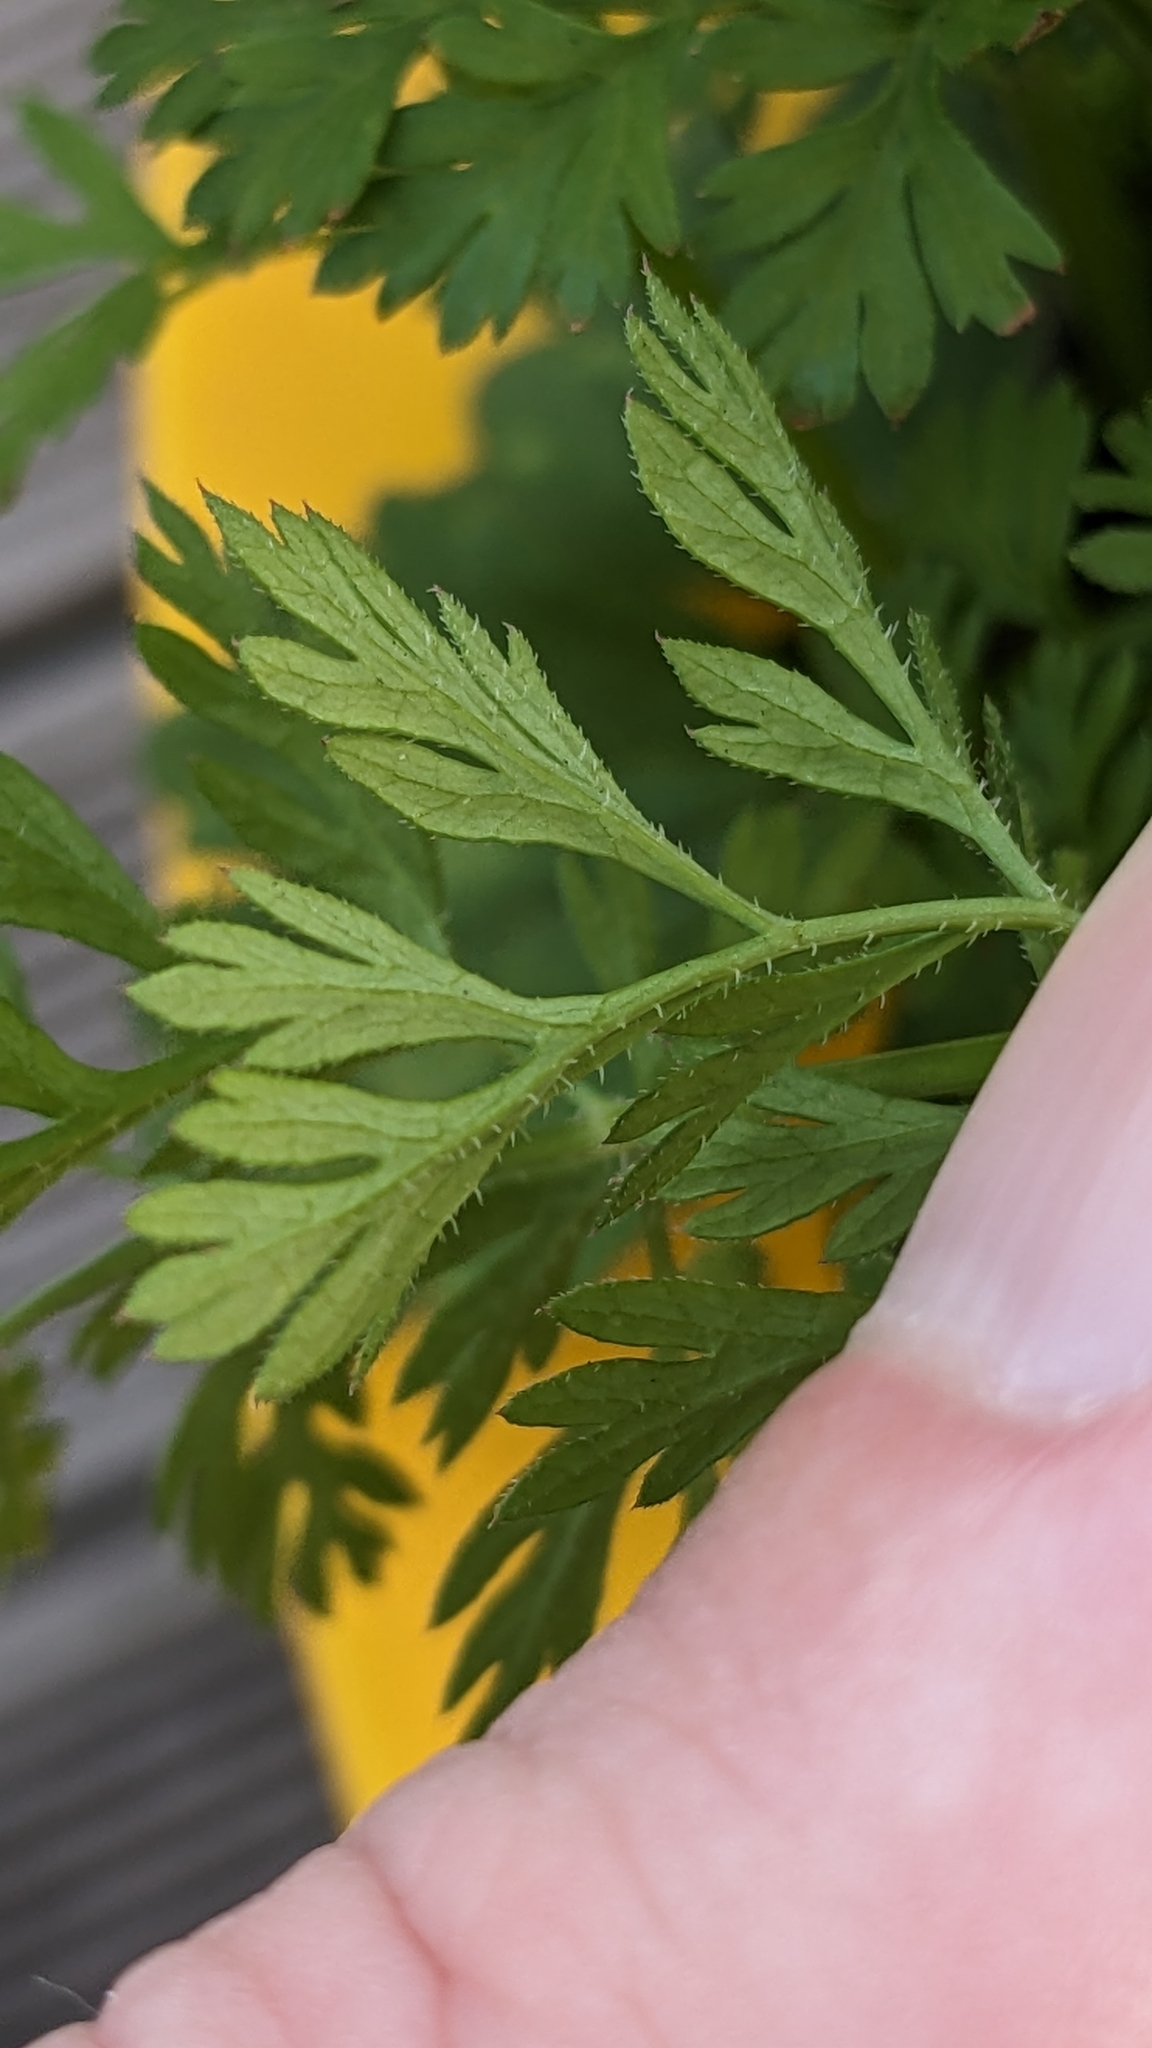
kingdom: Plantae
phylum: Tracheophyta
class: Magnoliopsida
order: Apiales
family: Apiaceae
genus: Daucus
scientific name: Daucus carota
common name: Wild carrot
